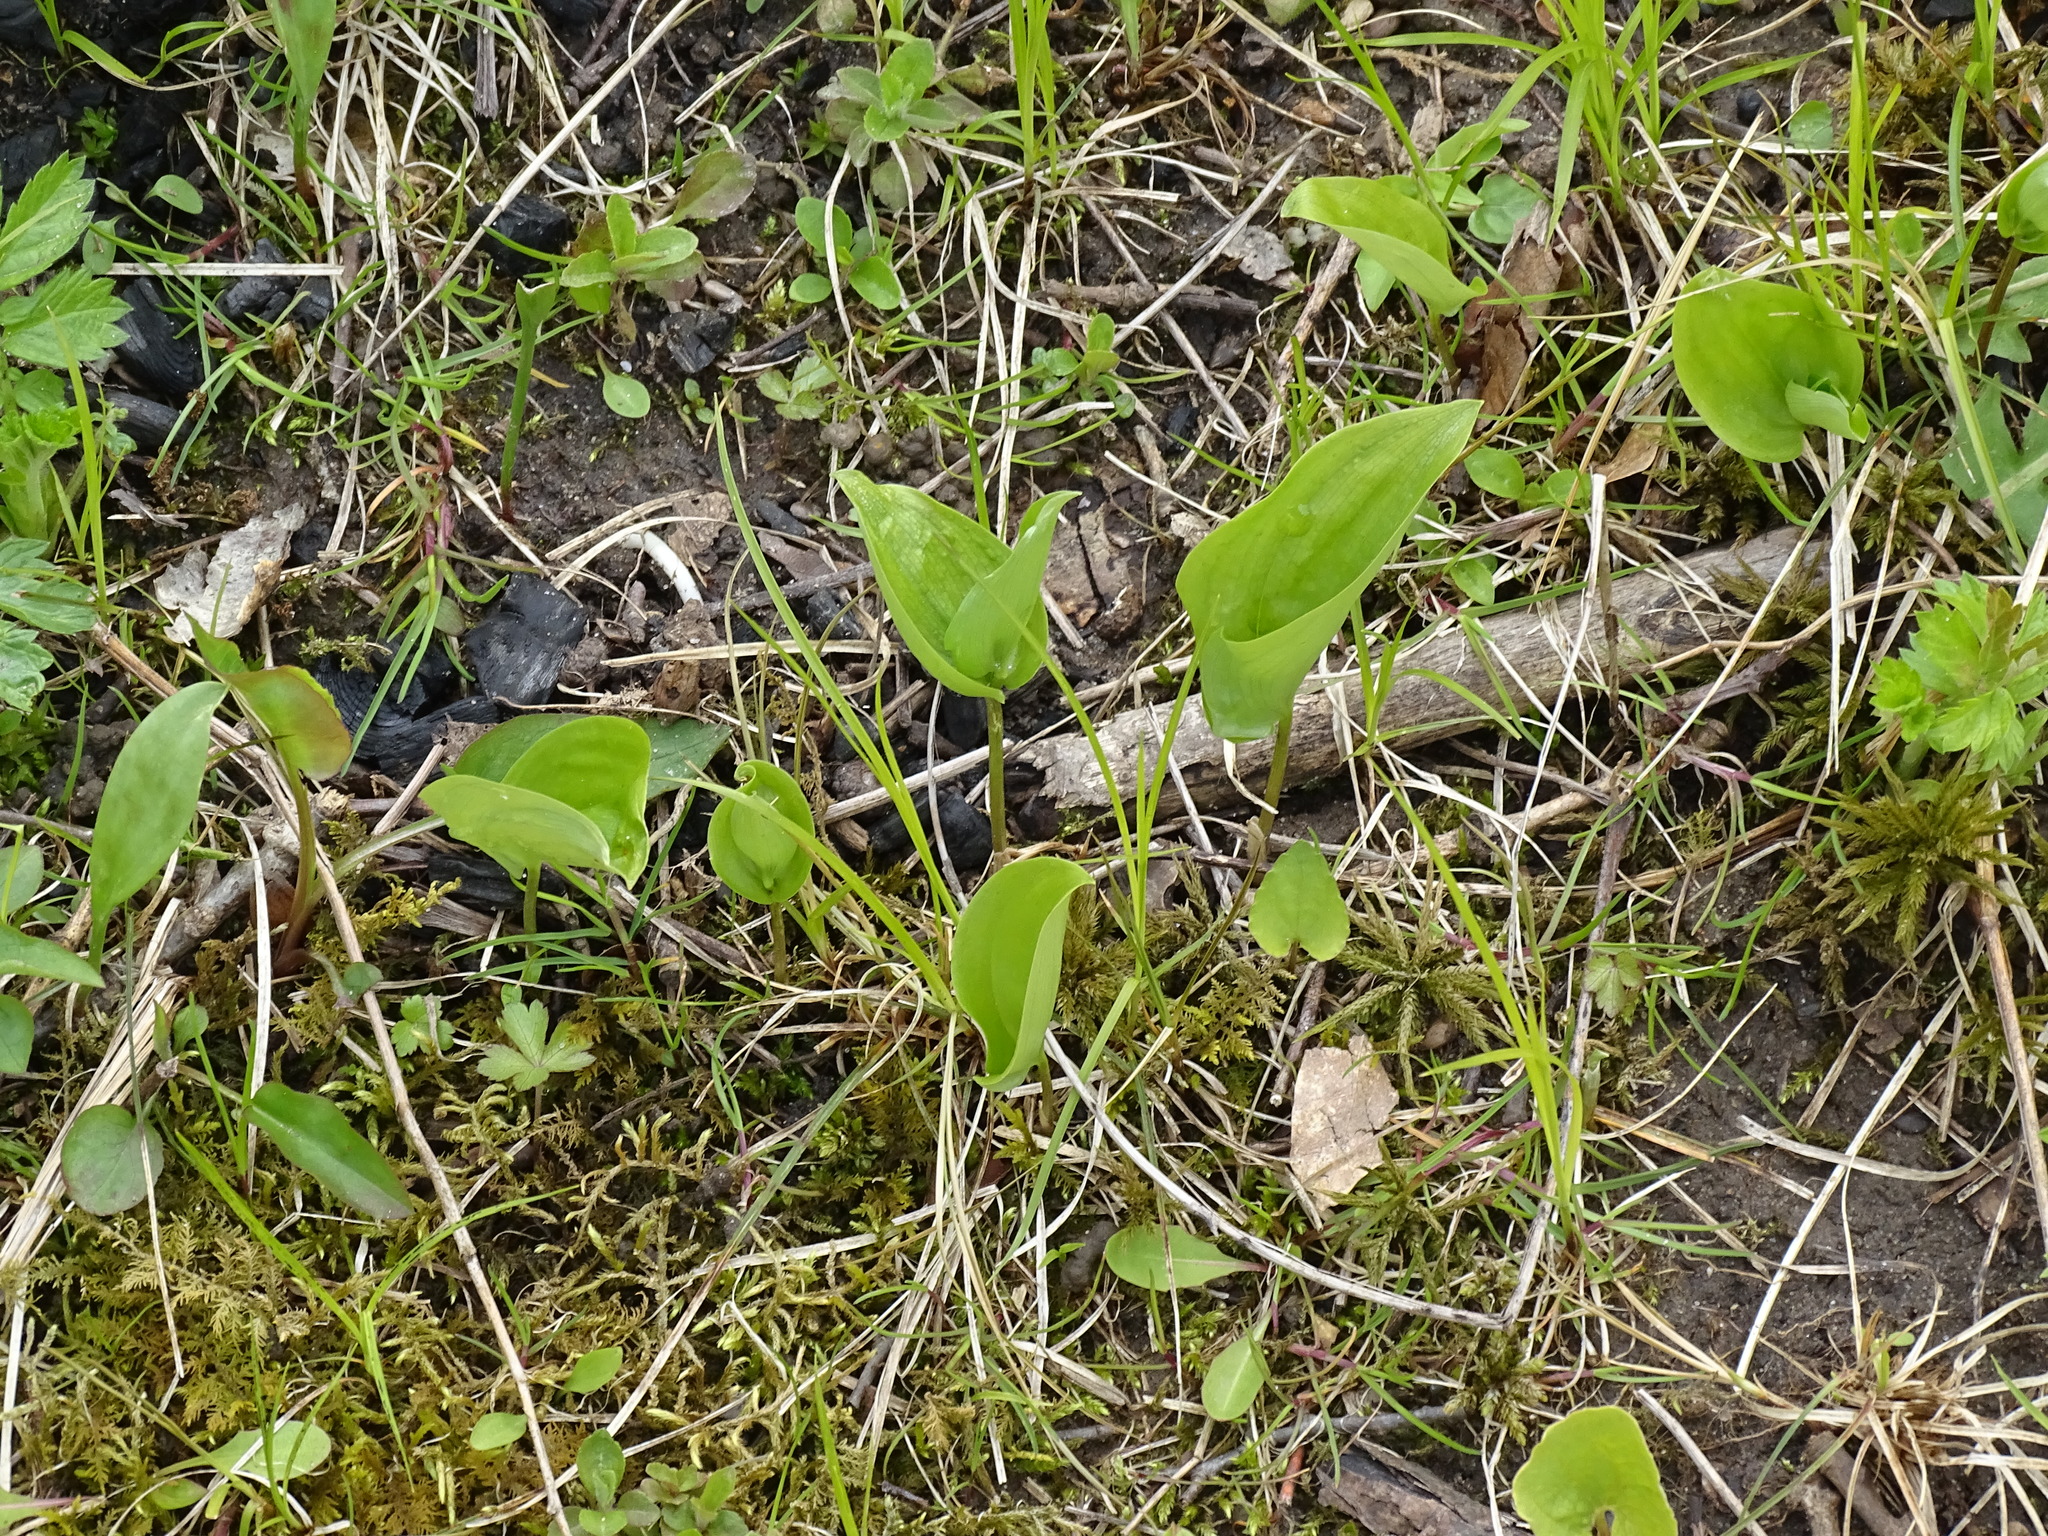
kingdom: Plantae
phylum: Tracheophyta
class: Liliopsida
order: Asparagales
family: Asparagaceae
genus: Maianthemum
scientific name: Maianthemum canadense
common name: False lily-of-the-valley
